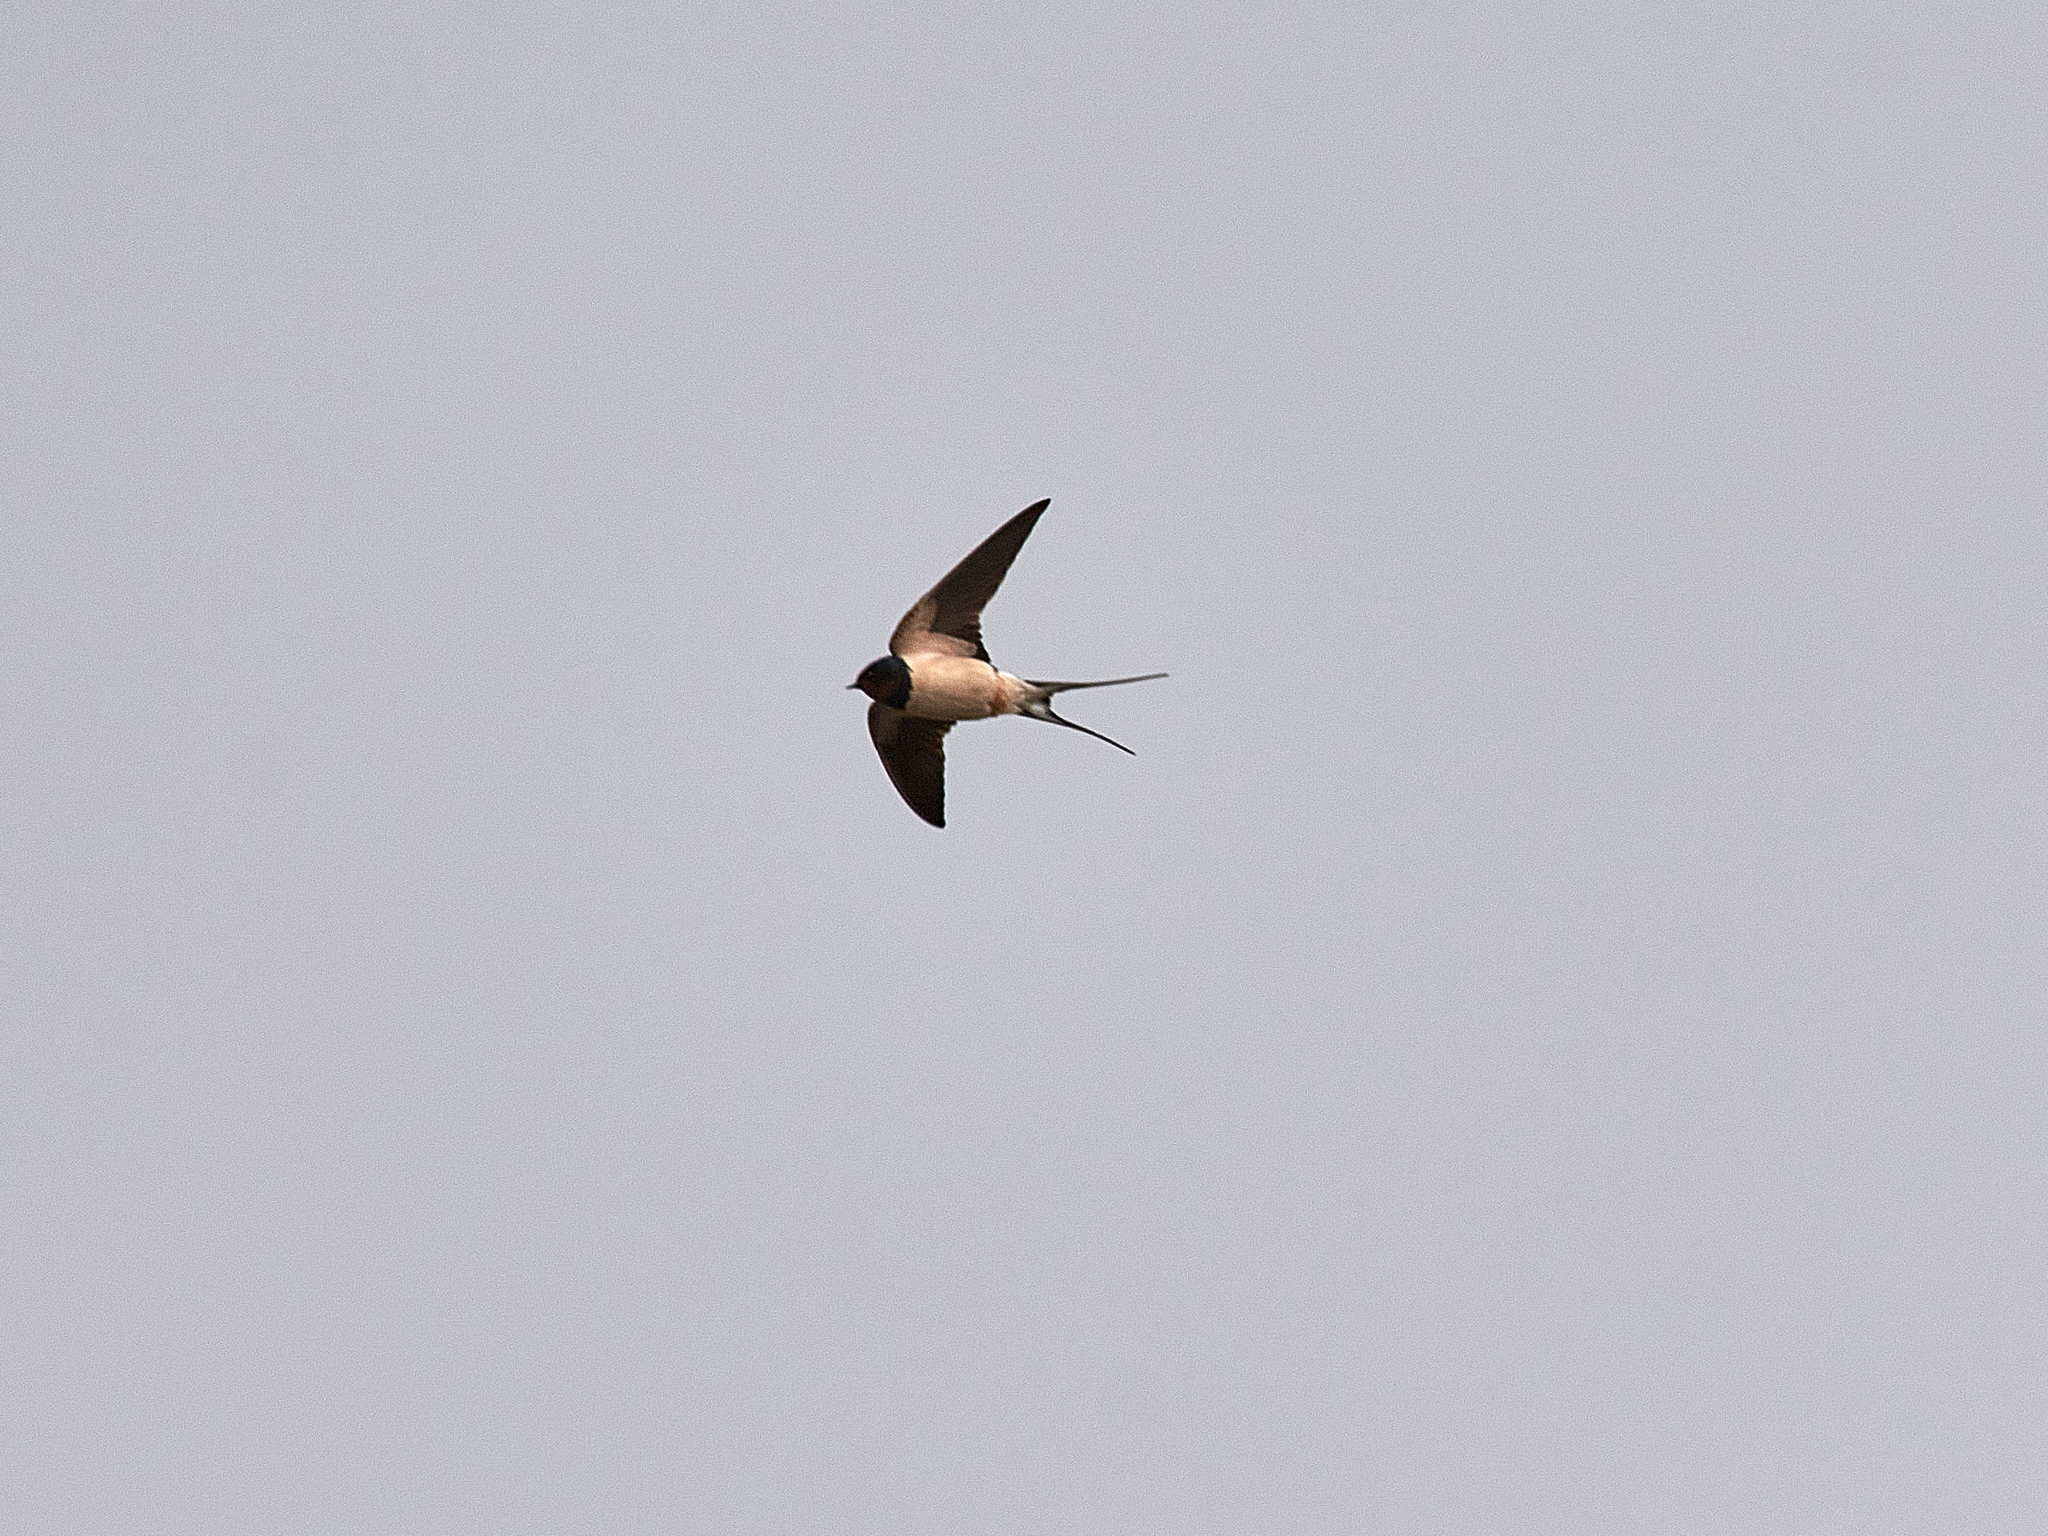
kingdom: Animalia
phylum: Chordata
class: Aves
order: Passeriformes
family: Hirundinidae
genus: Hirundo
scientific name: Hirundo rustica
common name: Barn swallow
